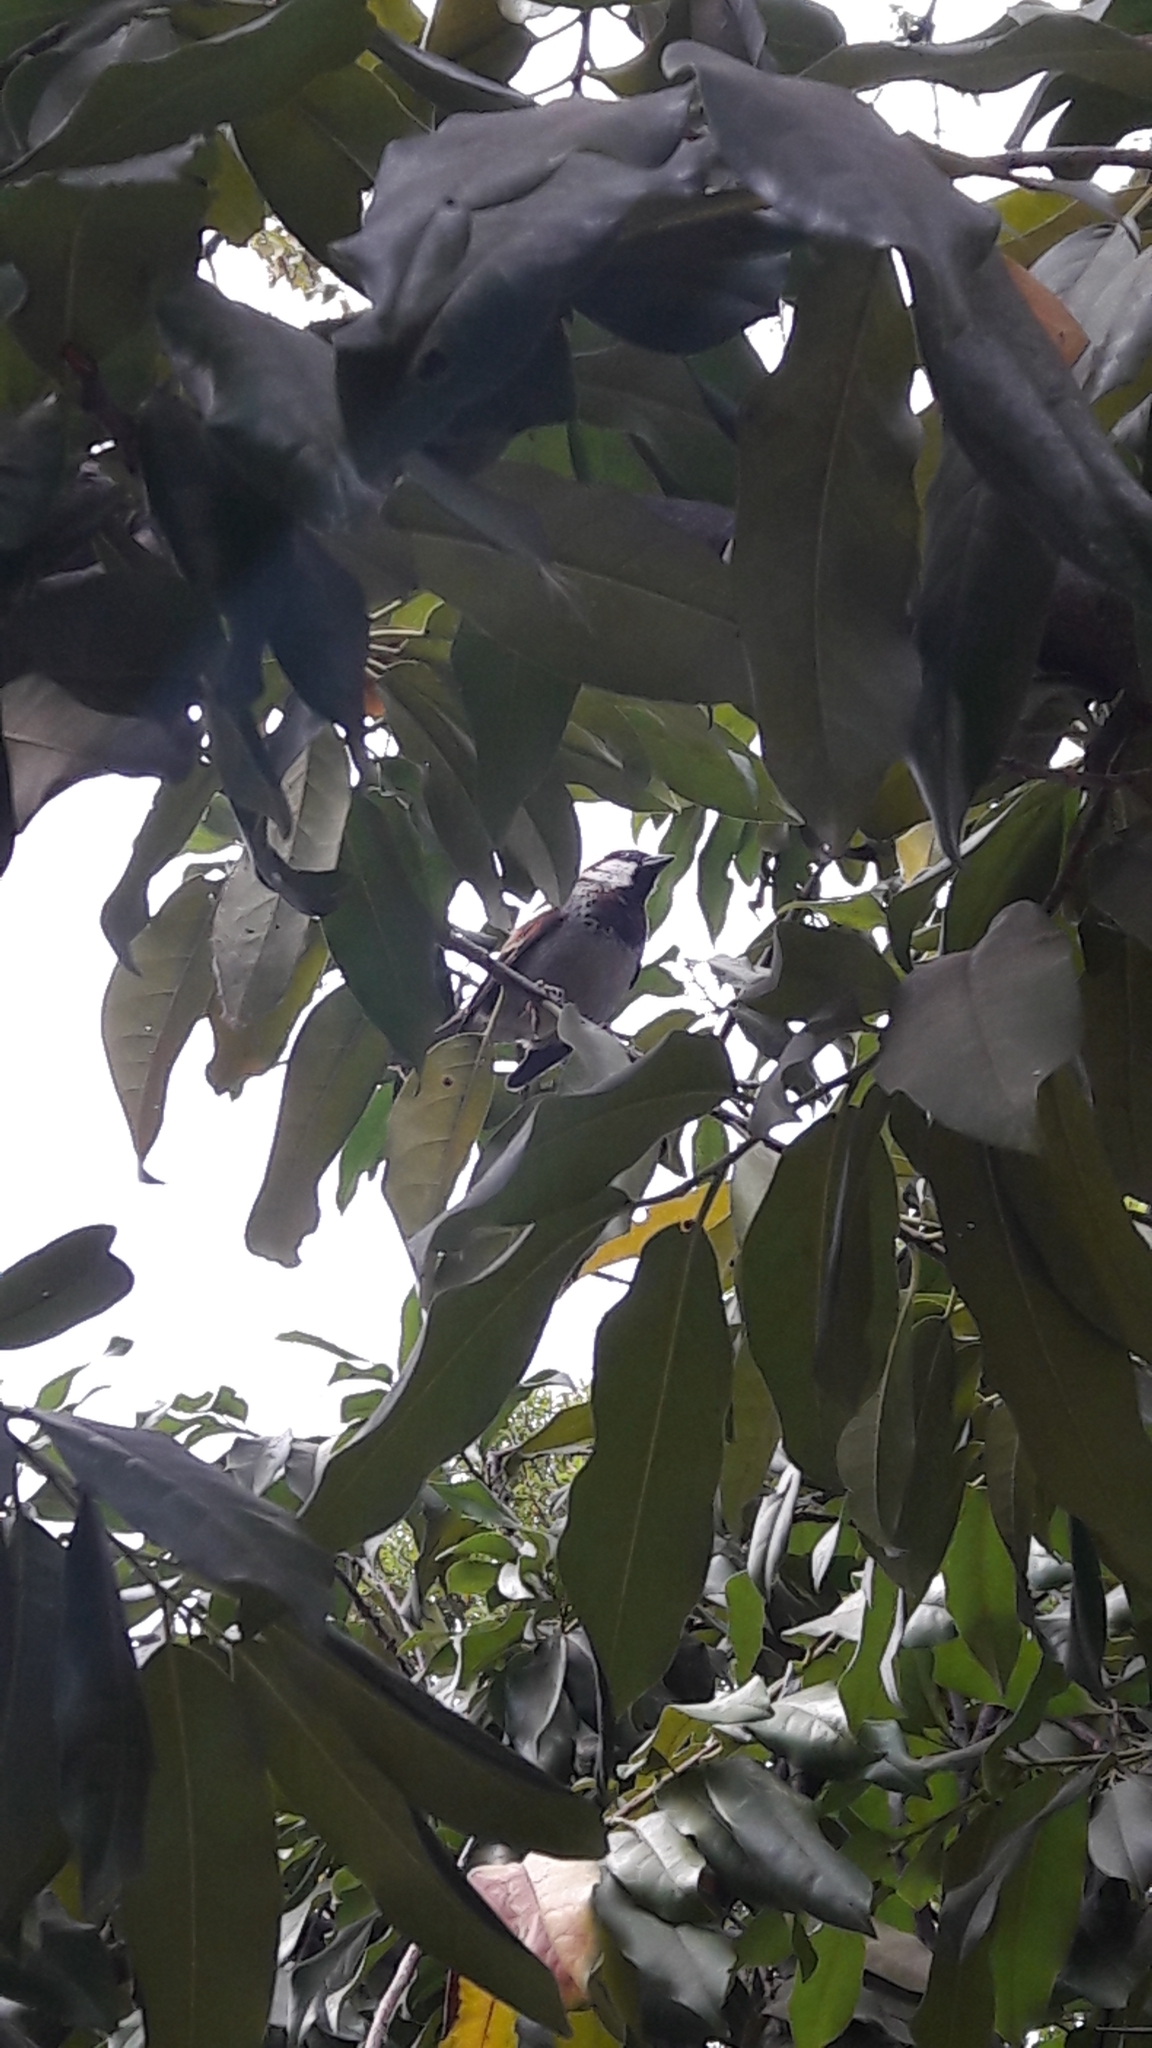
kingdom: Animalia
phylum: Chordata
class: Aves
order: Passeriformes
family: Passeridae
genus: Passer
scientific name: Passer domesticus
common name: House sparrow
